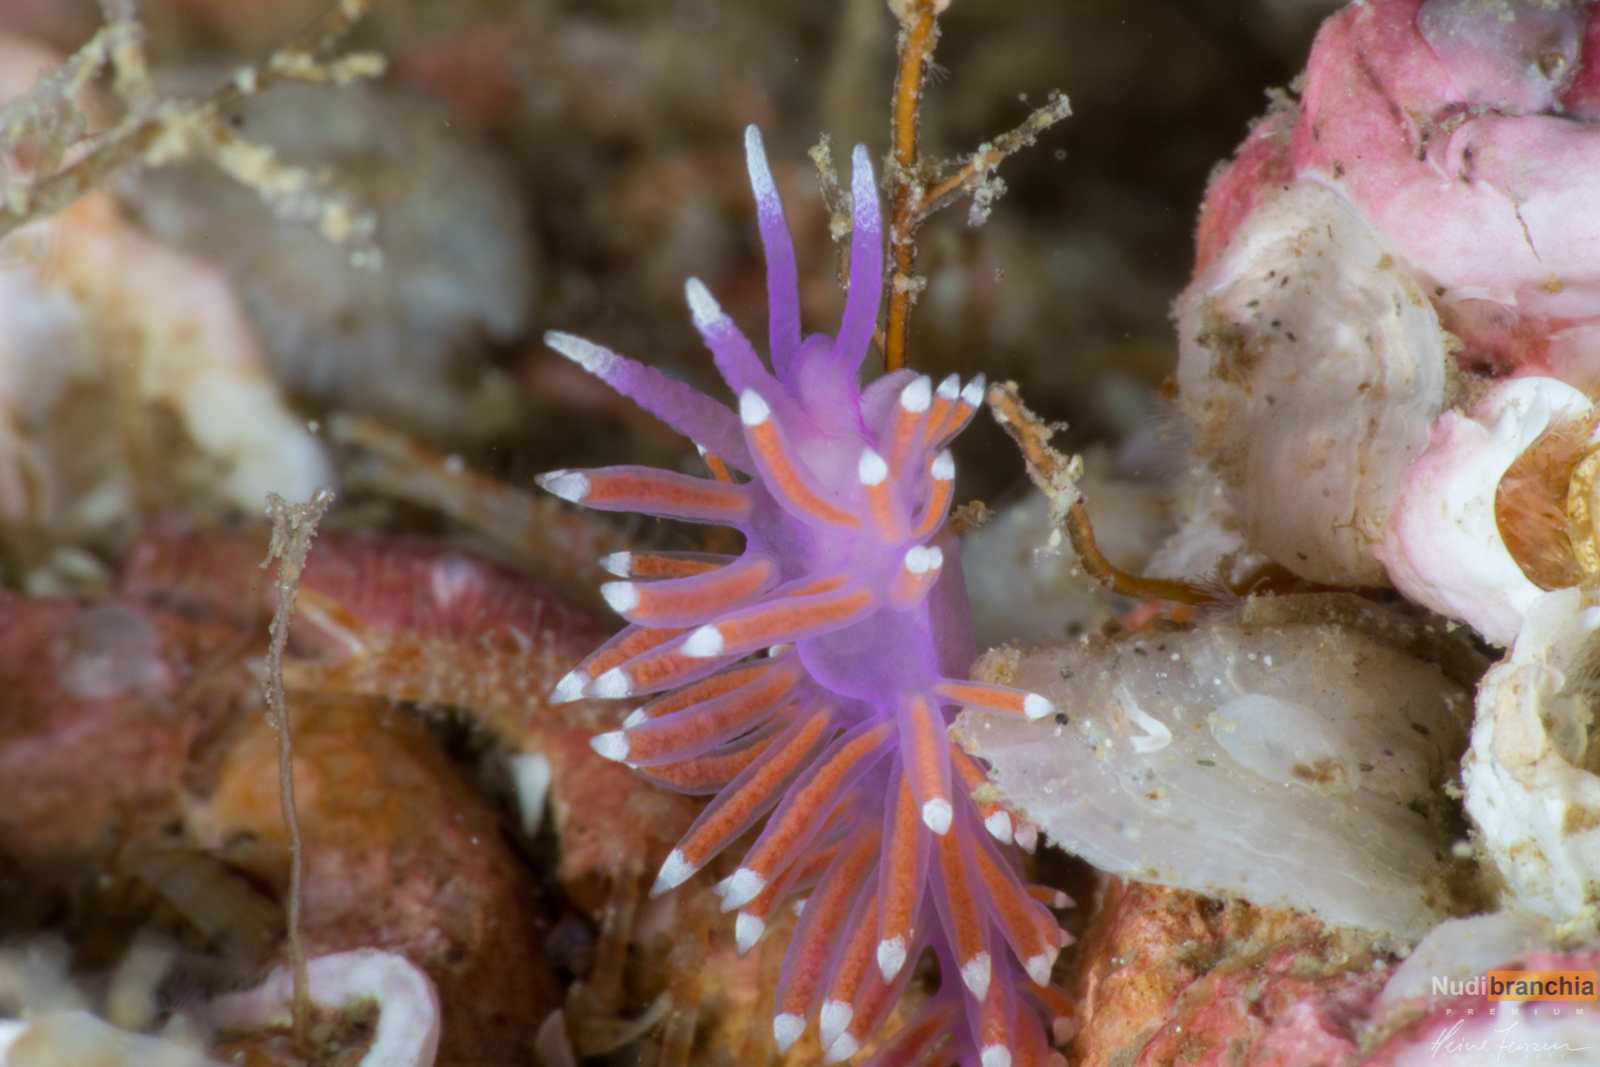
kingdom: Animalia
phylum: Mollusca
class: Gastropoda
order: Nudibranchia
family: Flabellinidae
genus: Edmundsella
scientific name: Edmundsella pedata
